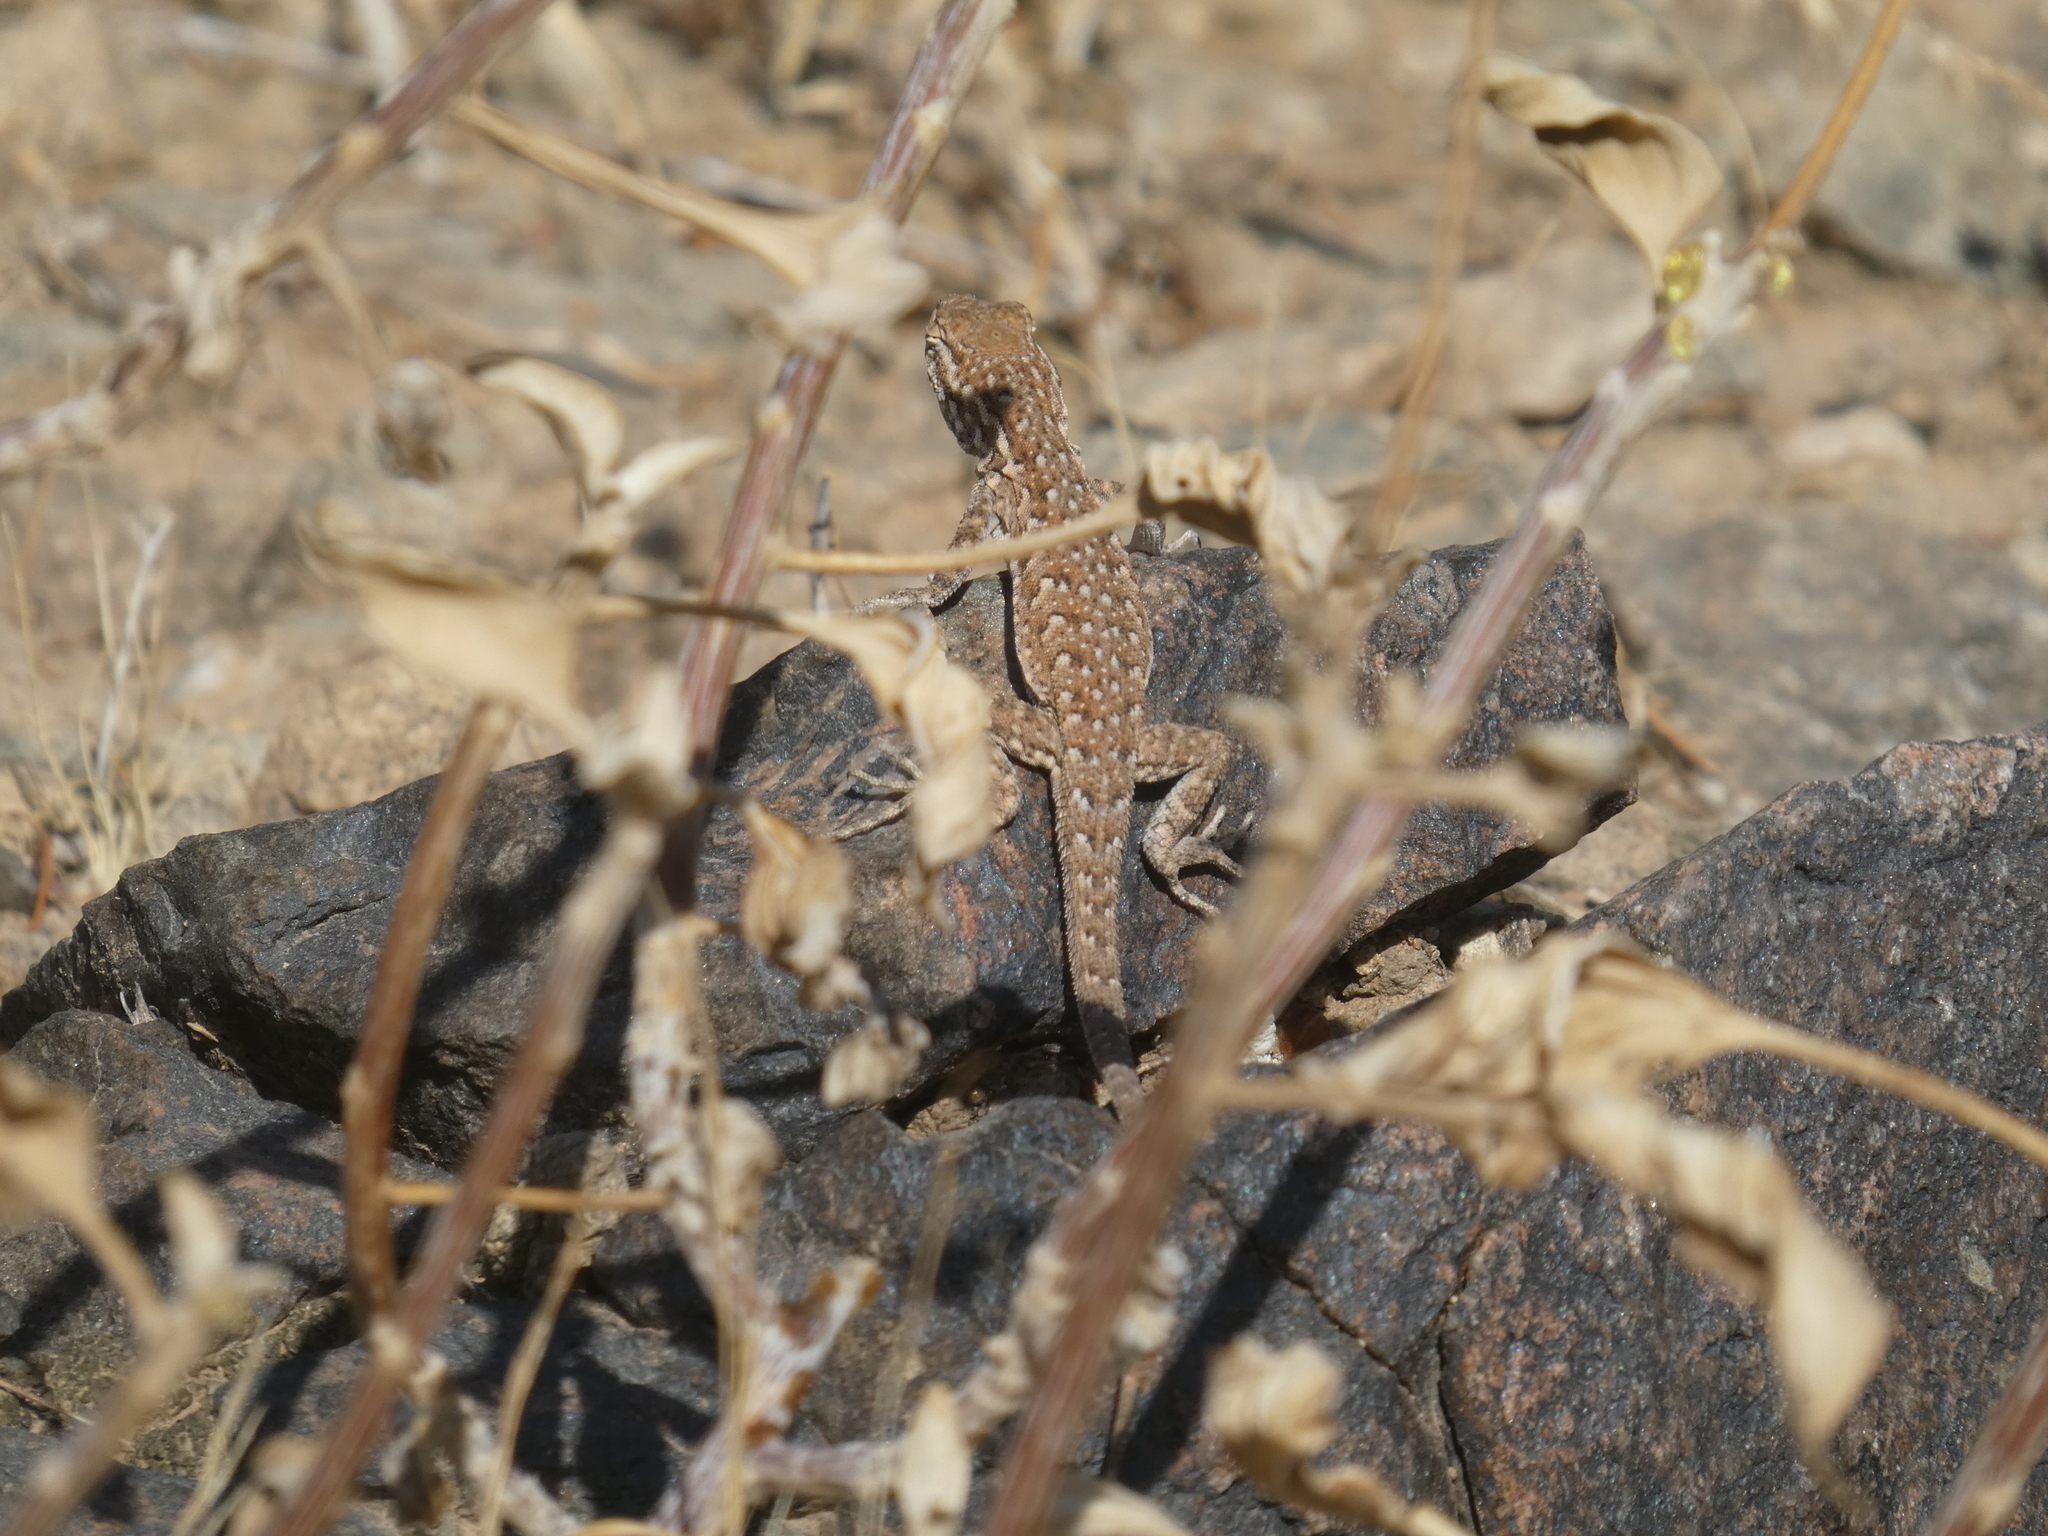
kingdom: Animalia
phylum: Chordata
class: Squamata
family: Phrynosomatidae
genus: Uta
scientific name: Uta stansburiana
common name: Side-blotched lizard
